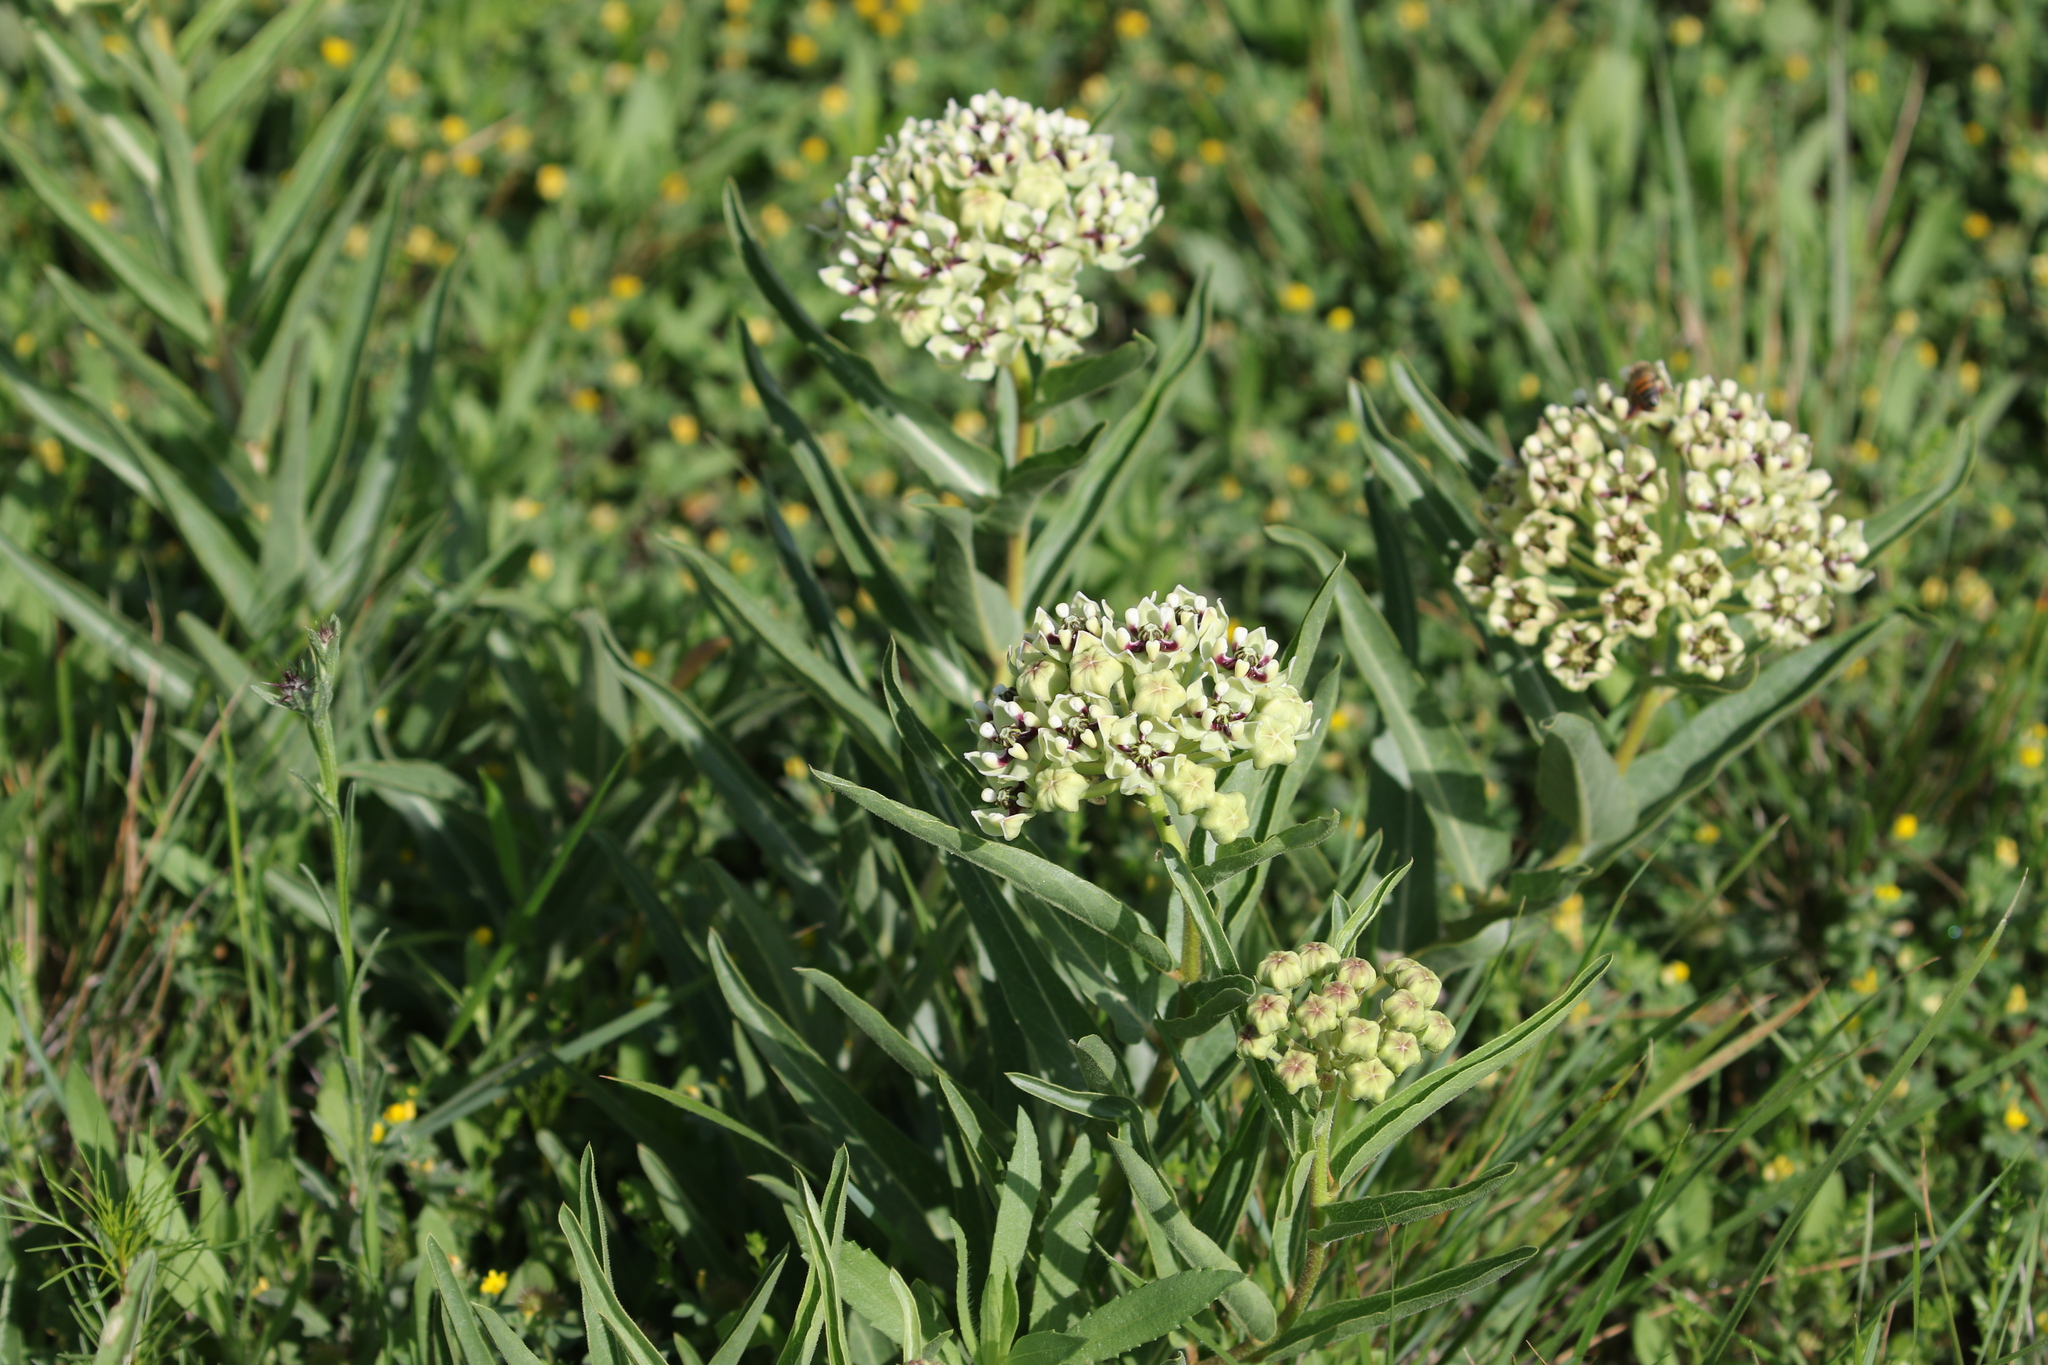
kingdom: Plantae
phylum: Tracheophyta
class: Magnoliopsida
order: Gentianales
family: Apocynaceae
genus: Asclepias
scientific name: Asclepias asperula
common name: Antelope horns
